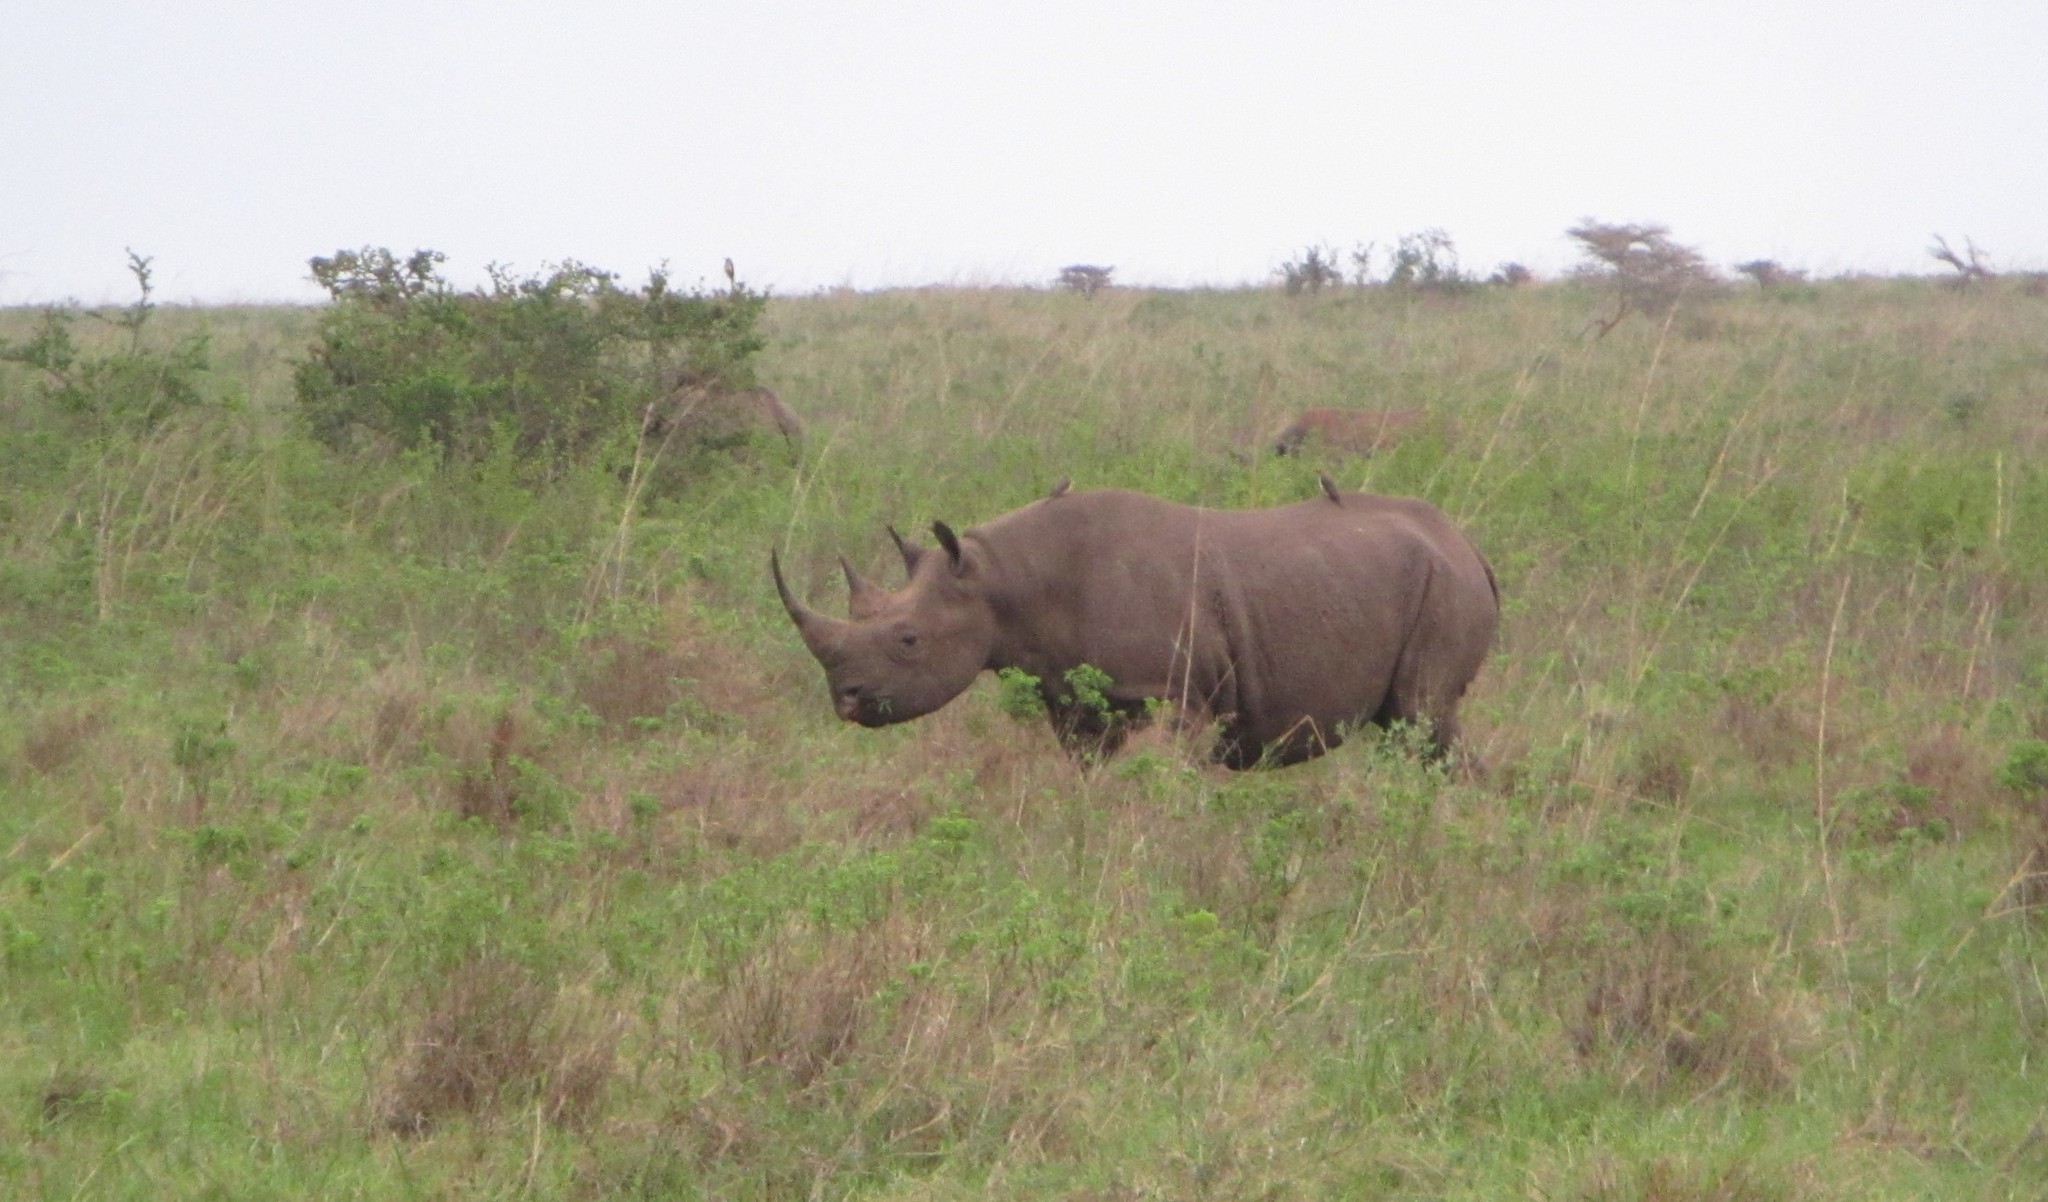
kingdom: Animalia
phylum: Chordata
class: Mammalia
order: Perissodactyla
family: Rhinocerotidae
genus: Diceros
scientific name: Diceros bicornis
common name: Black rhinoceros
